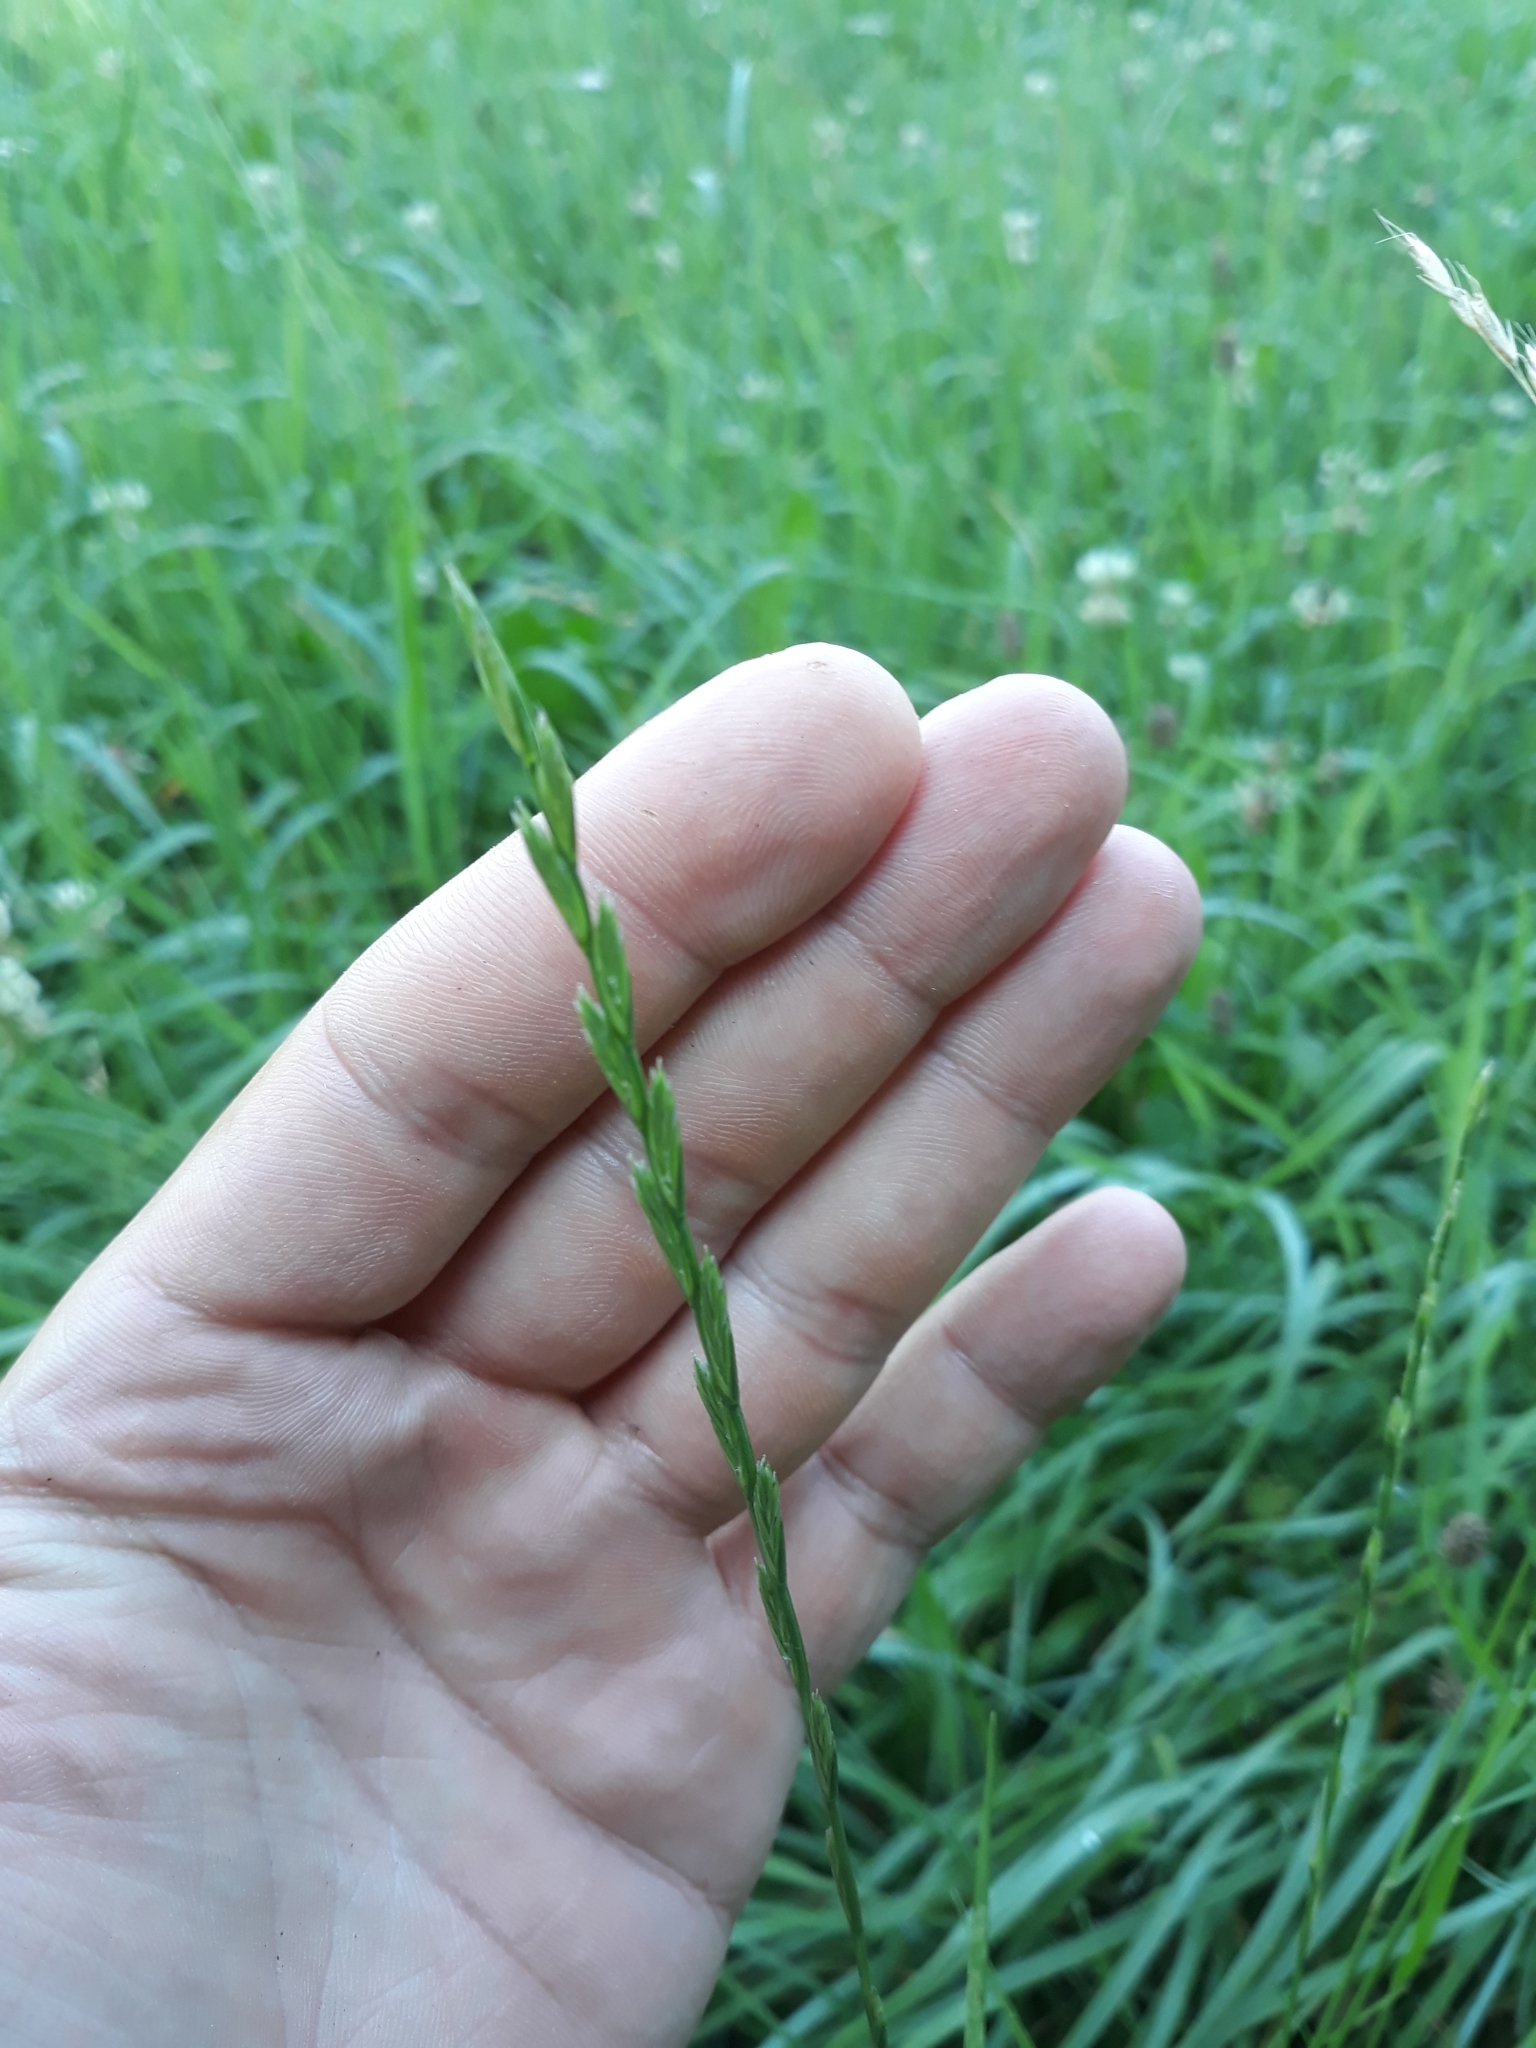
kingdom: Plantae
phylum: Tracheophyta
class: Liliopsida
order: Poales
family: Poaceae
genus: Lolium
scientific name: Lolium perenne
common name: Perennial ryegrass
